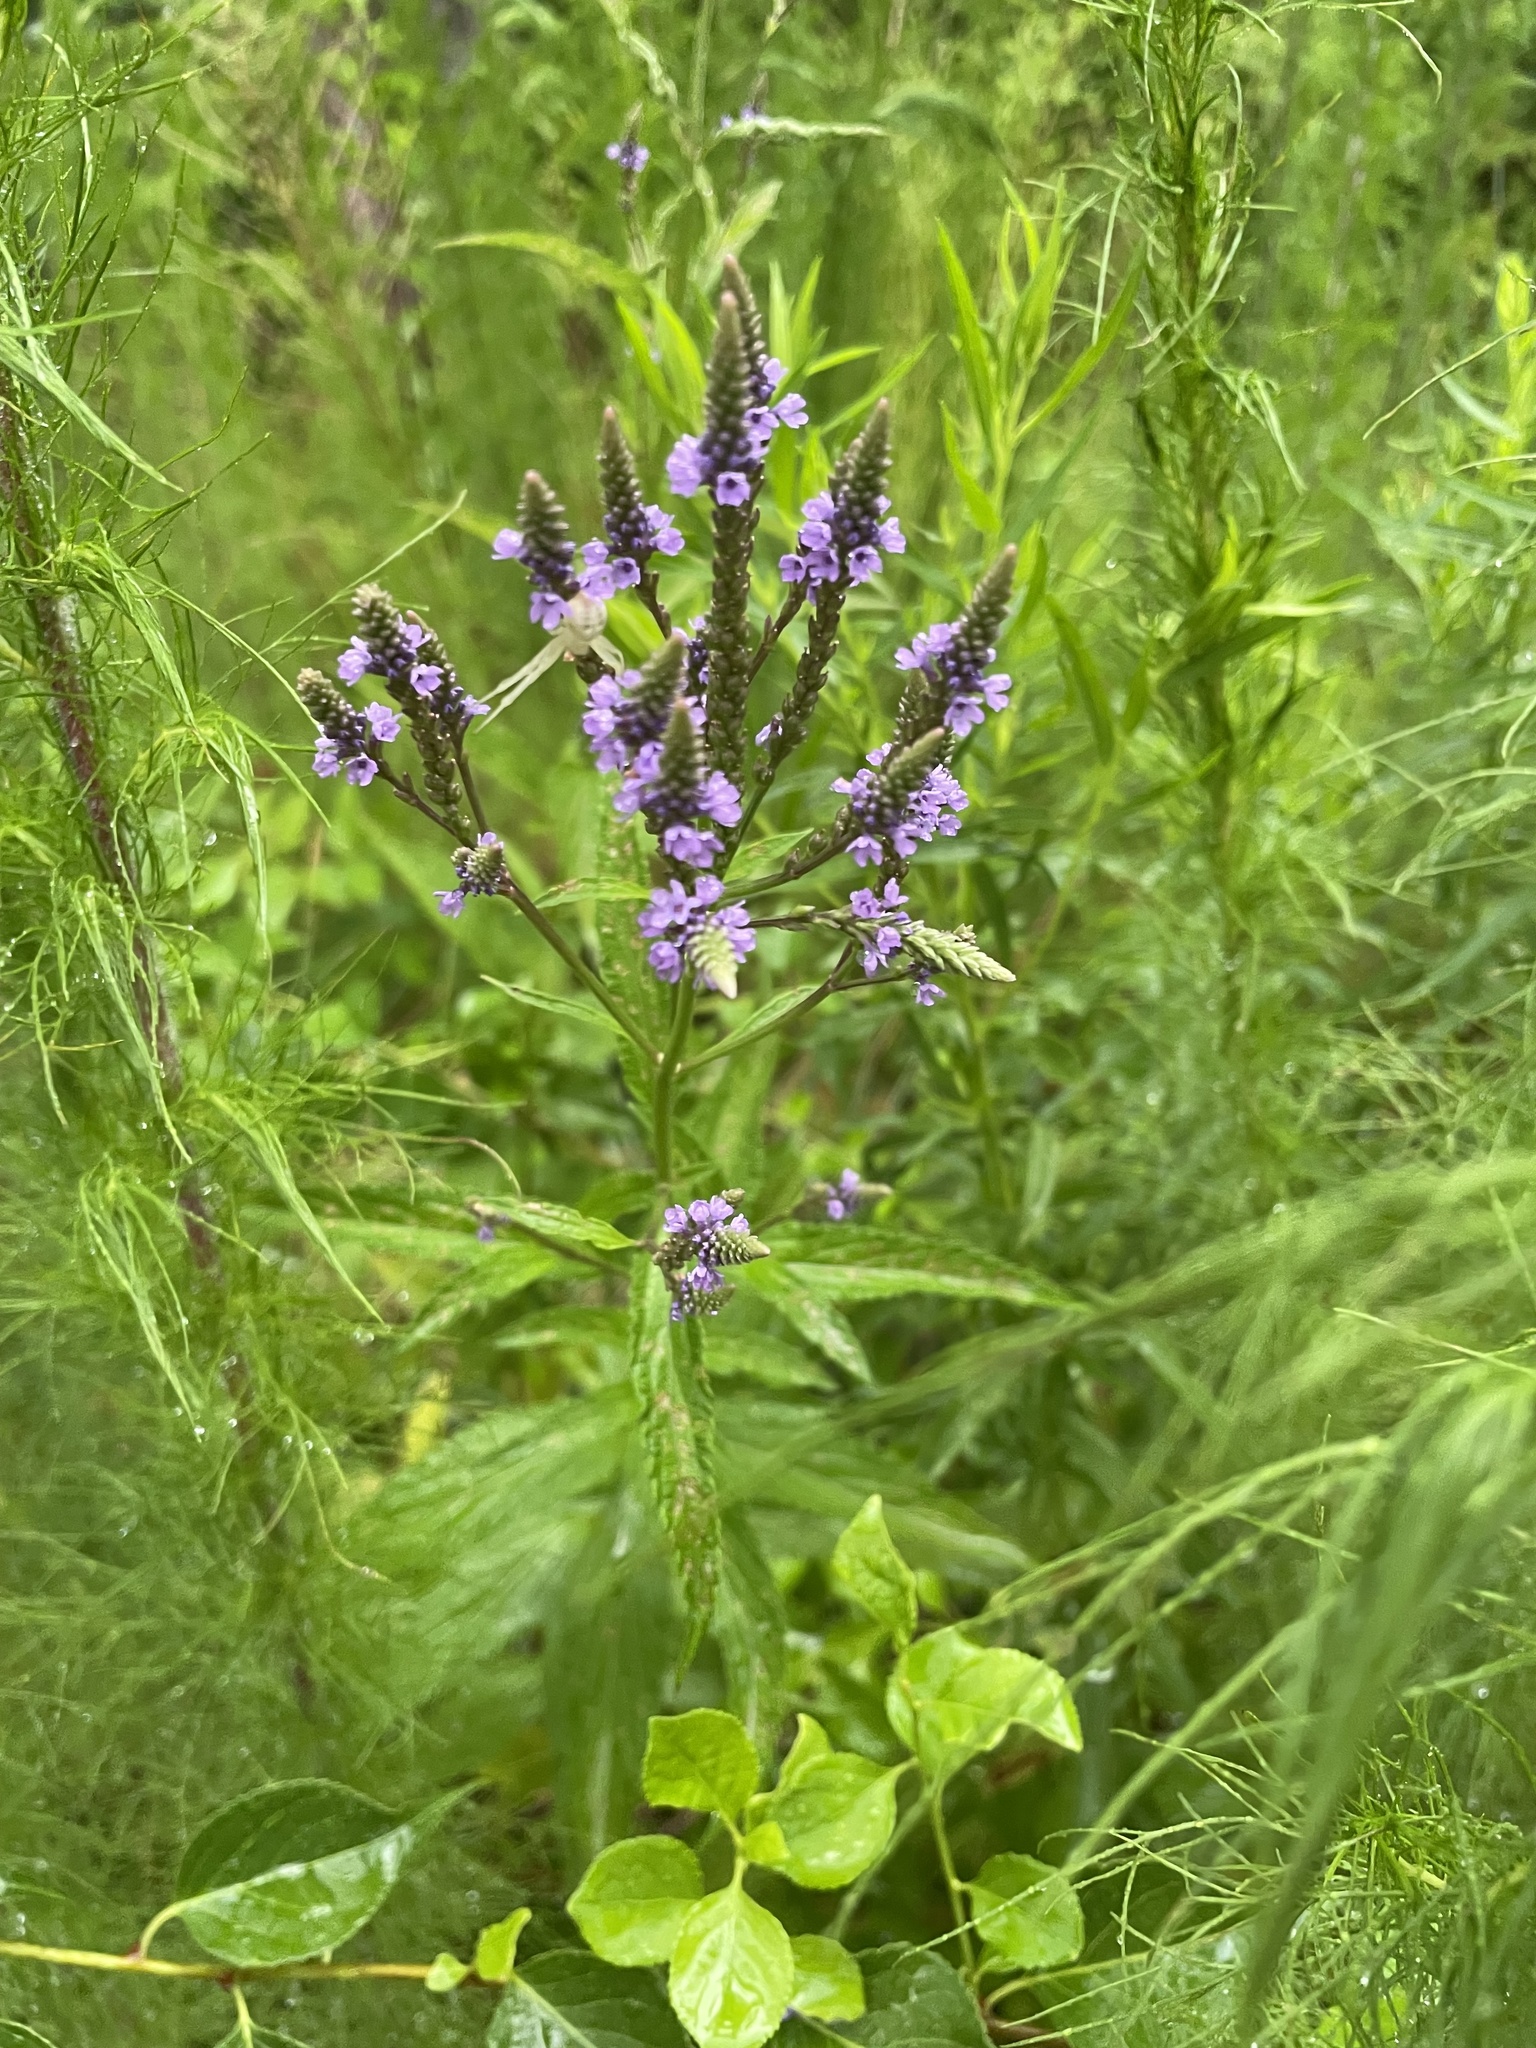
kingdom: Plantae
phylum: Tracheophyta
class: Magnoliopsida
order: Lamiales
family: Verbenaceae
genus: Verbena
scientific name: Verbena hastata
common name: American blue vervain
